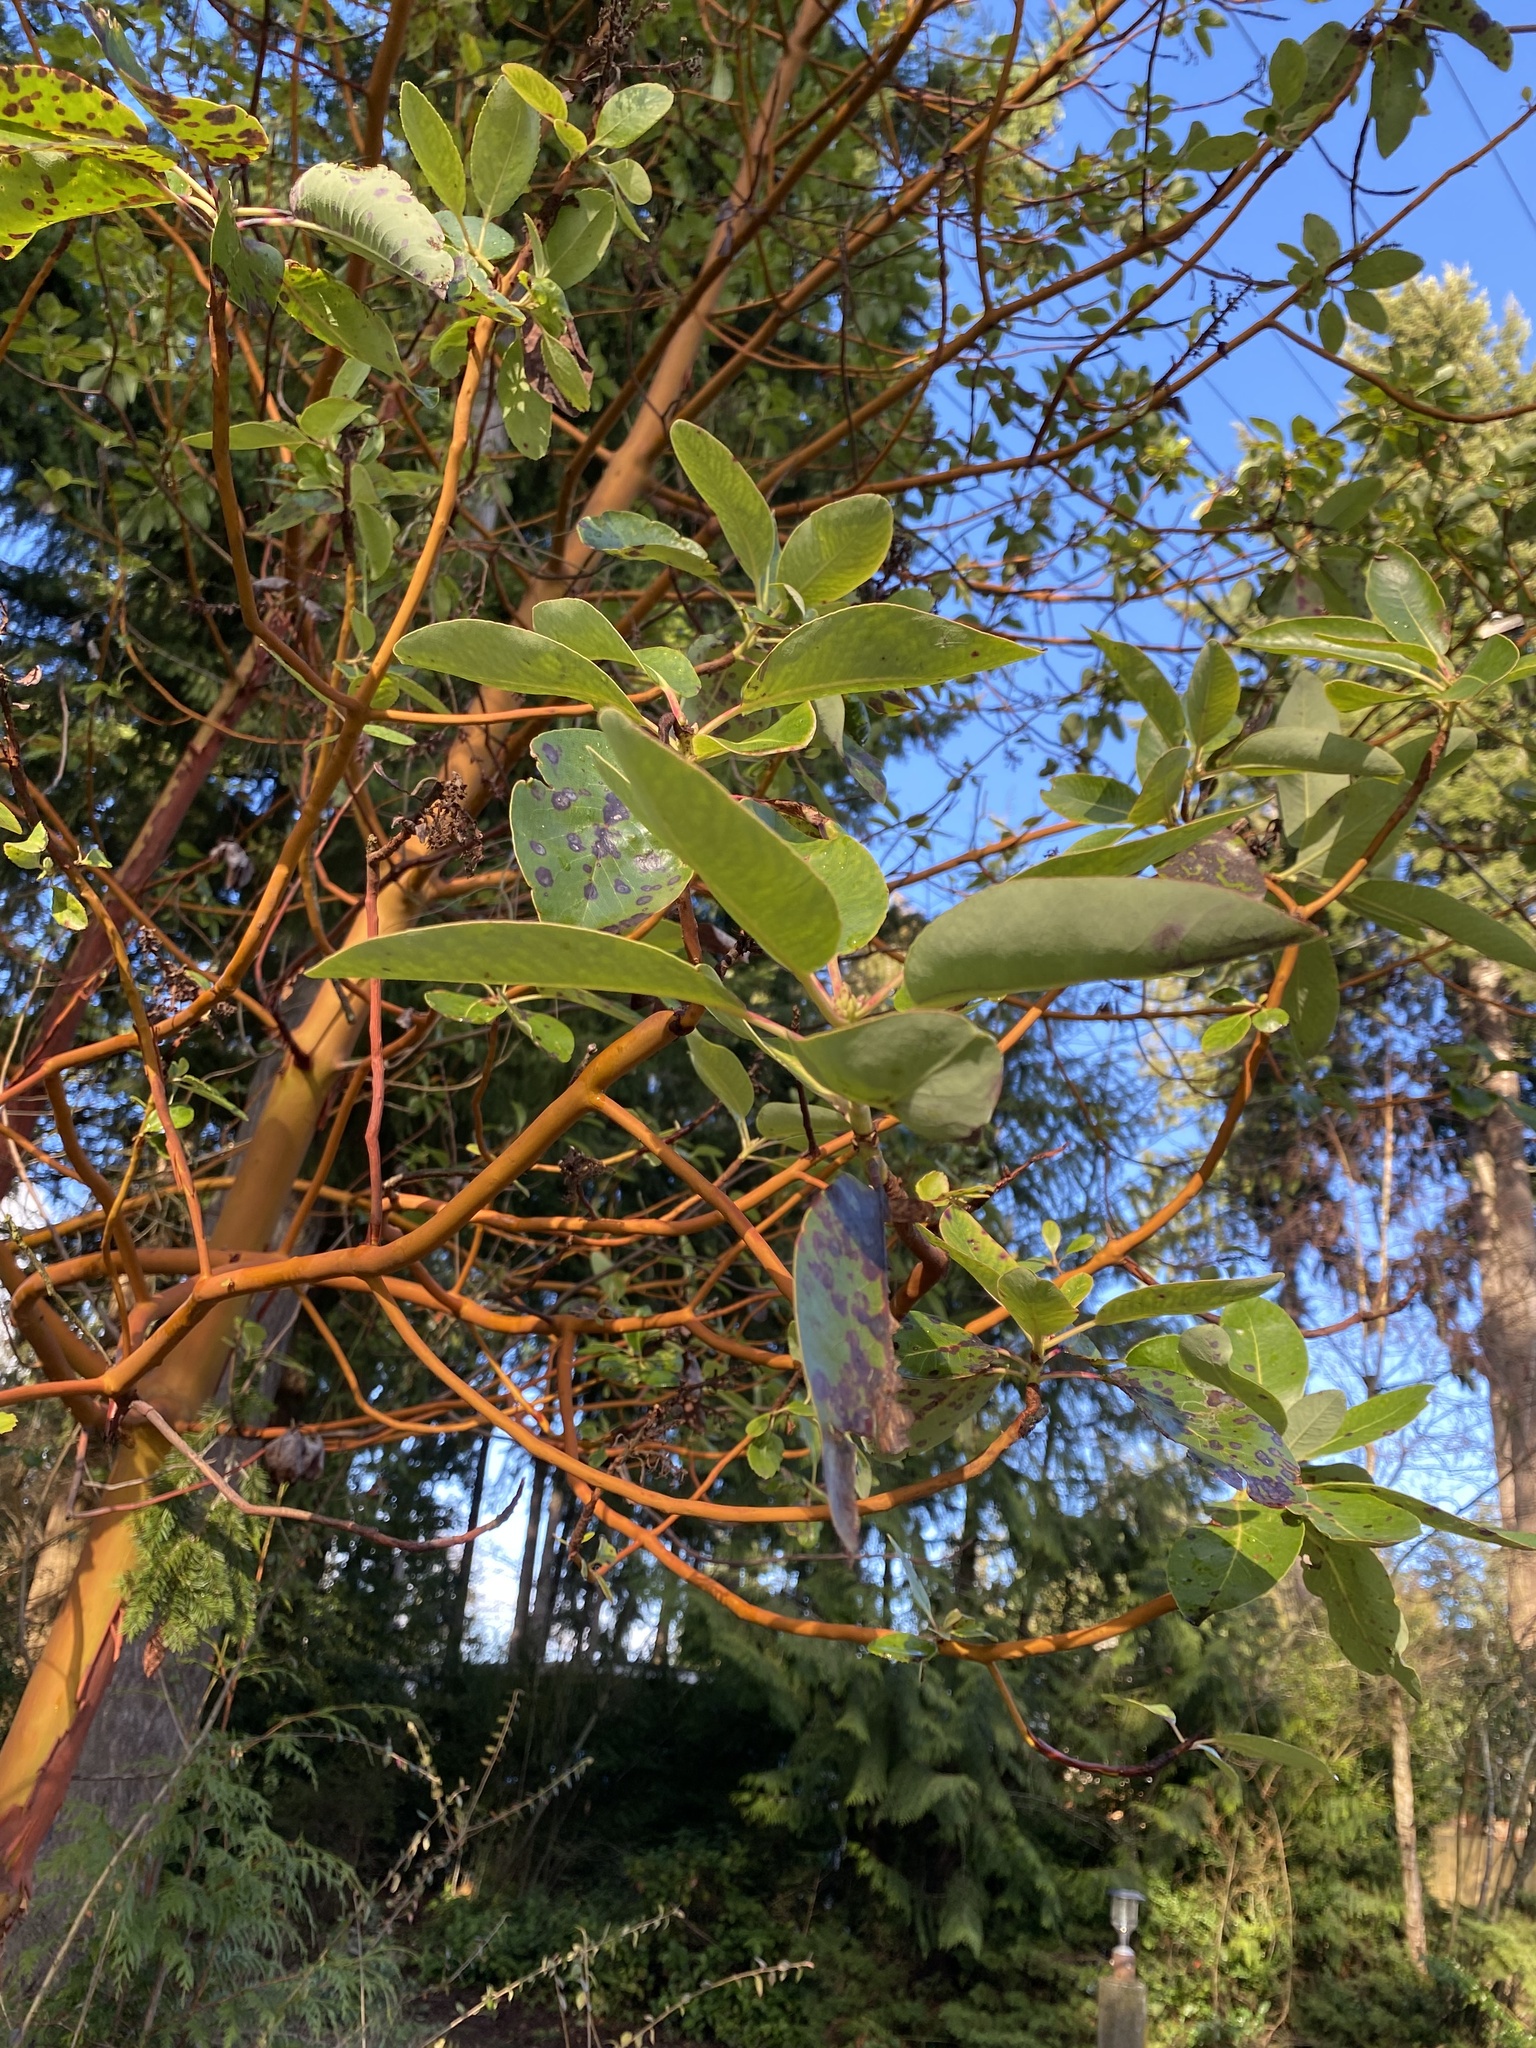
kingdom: Plantae
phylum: Tracheophyta
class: Magnoliopsida
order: Ericales
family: Ericaceae
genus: Arbutus
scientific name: Arbutus menziesii
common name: Pacific madrone
